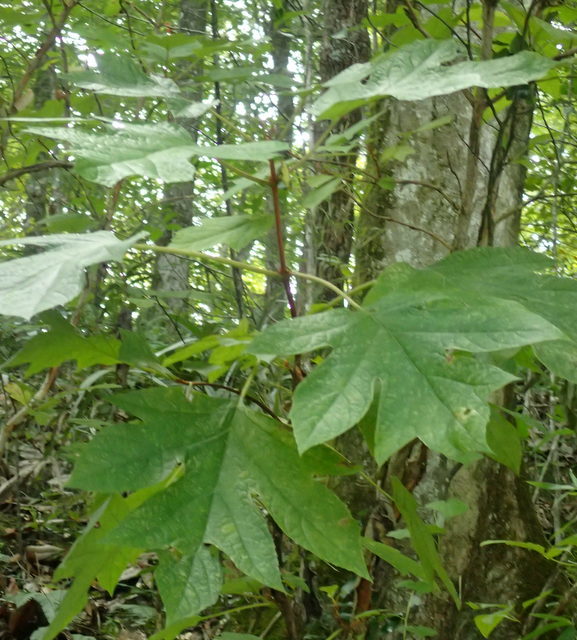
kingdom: Plantae
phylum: Tracheophyta
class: Magnoliopsida
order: Cornales
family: Hydrangeaceae
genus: Hydrangea
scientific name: Hydrangea quercifolia
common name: Oak-leaf hydrangea
